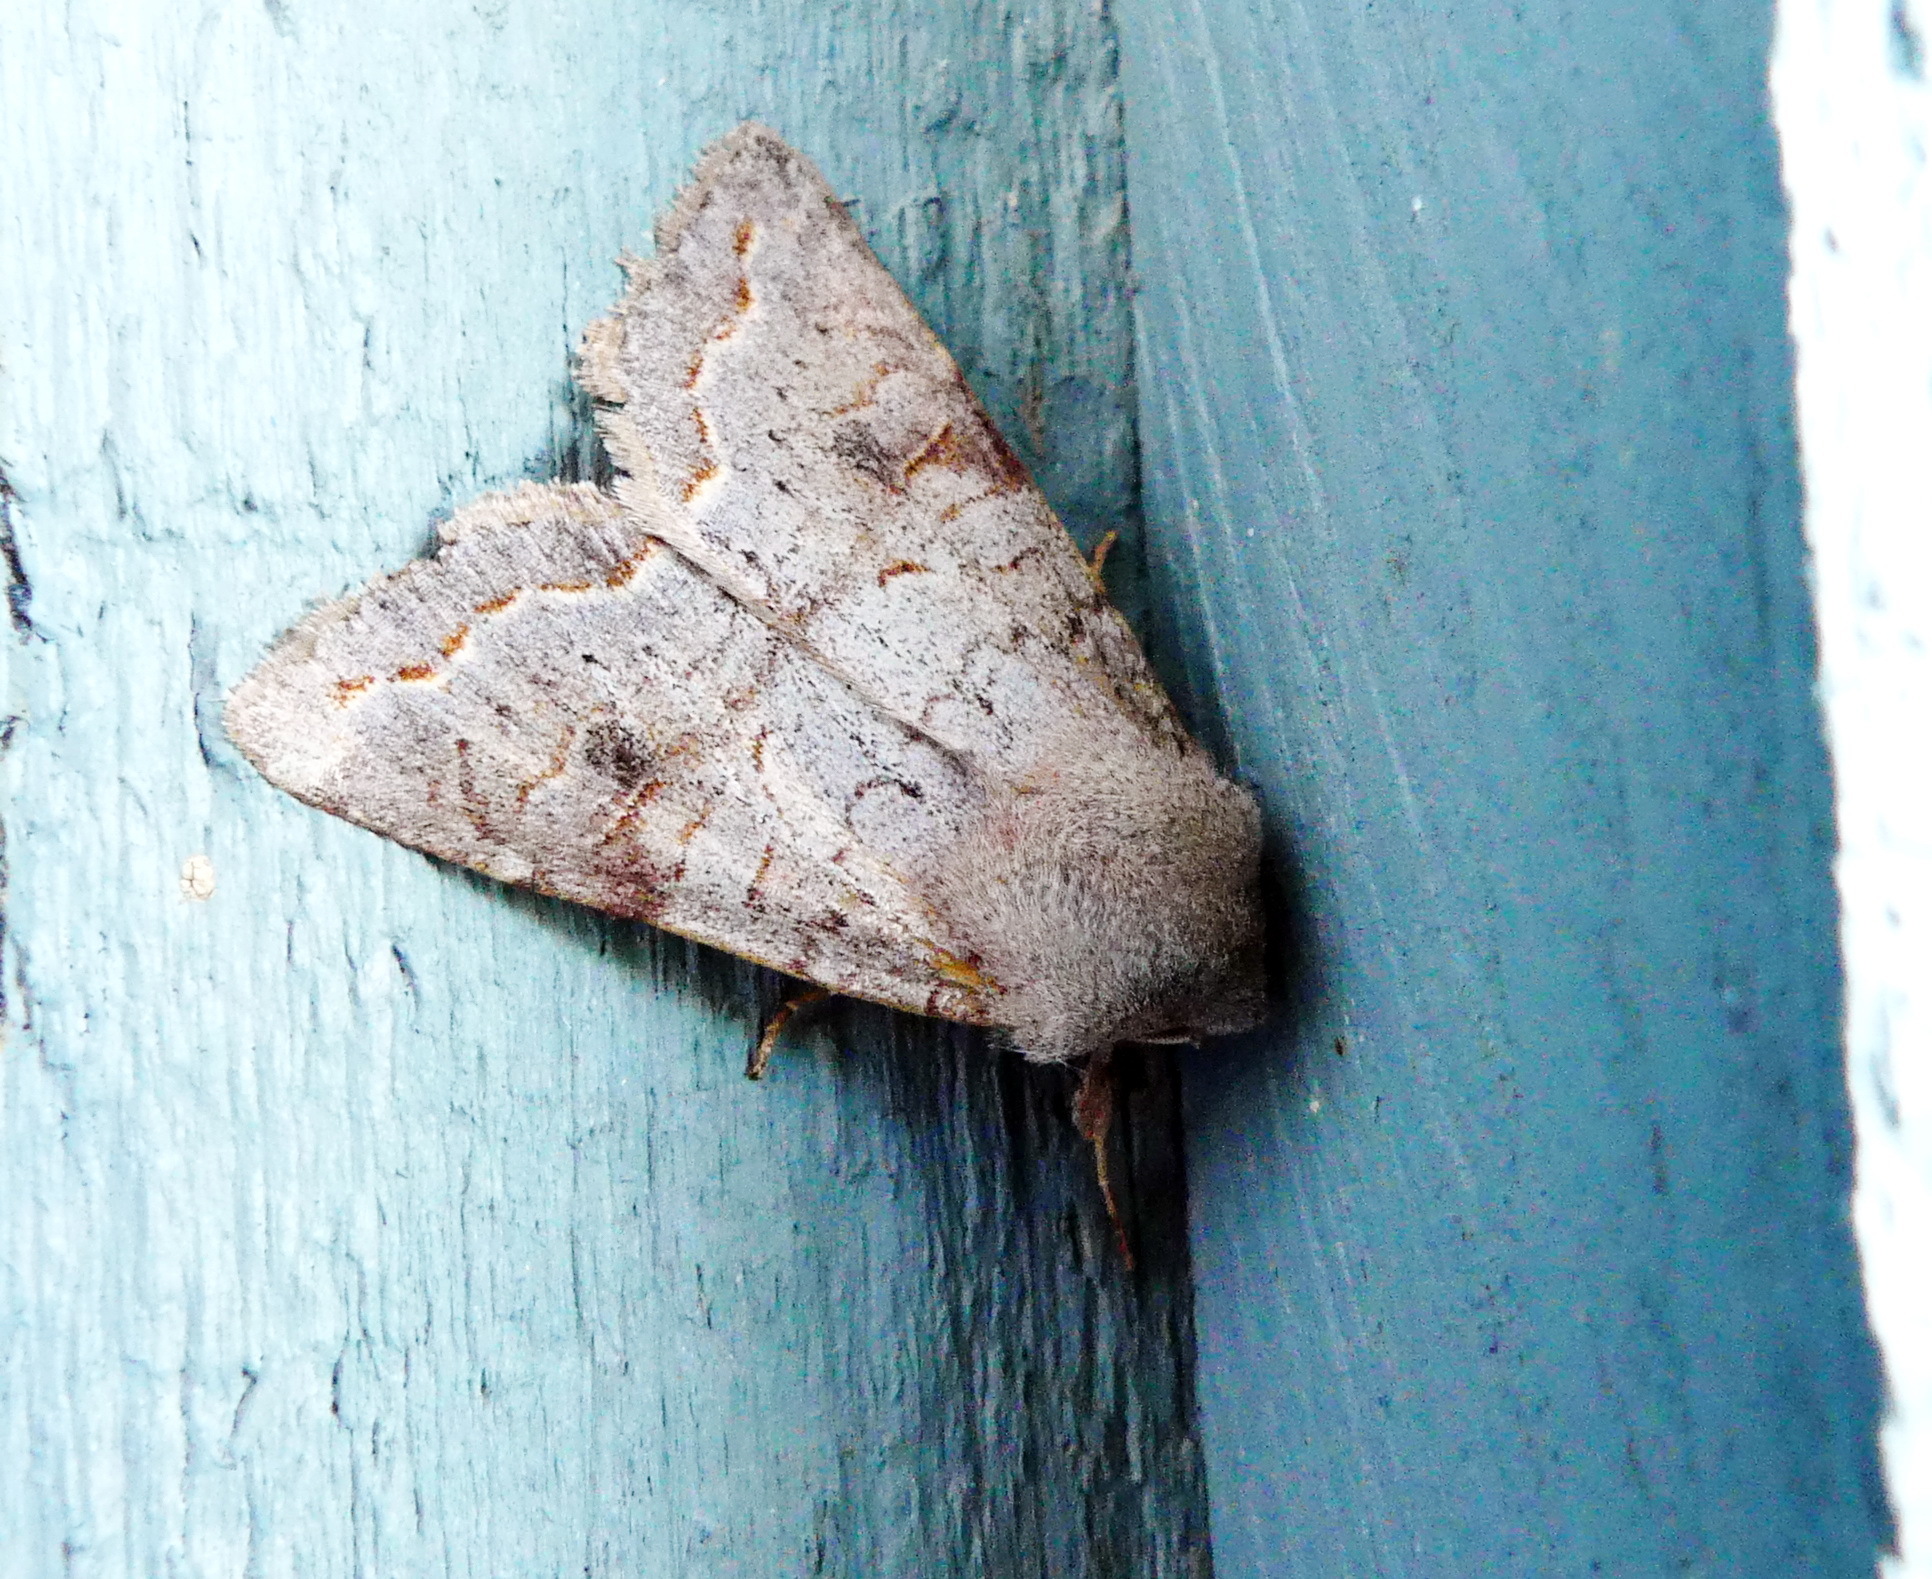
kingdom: Animalia
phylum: Arthropoda
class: Insecta
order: Lepidoptera
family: Noctuidae
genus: Orthosia
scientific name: Orthosia revicta
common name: Rusty whitesided caterpillar
